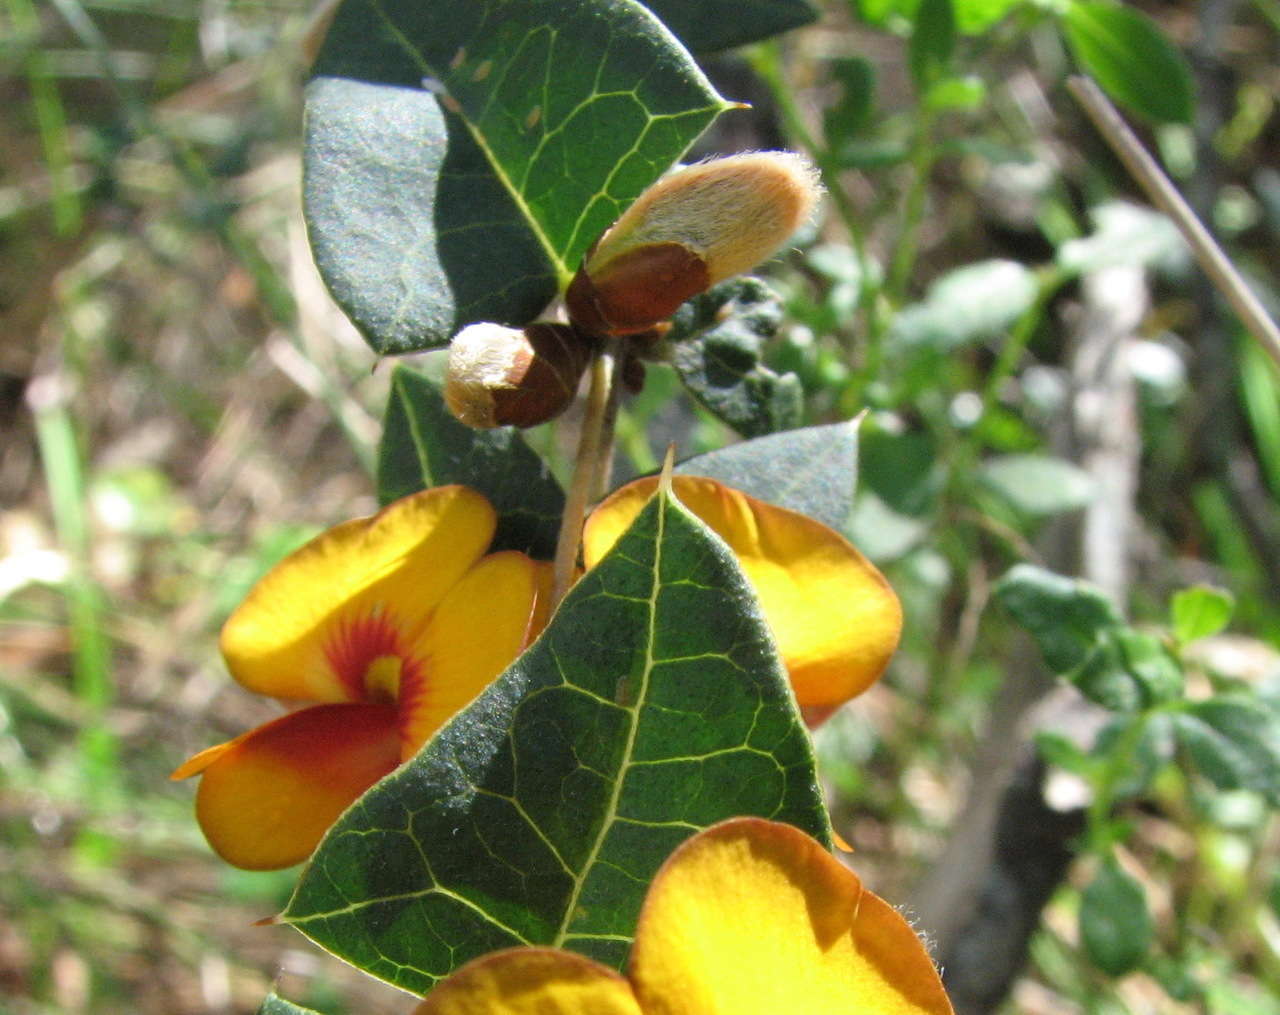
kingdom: Plantae
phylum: Tracheophyta
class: Magnoliopsida
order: Fabales
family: Fabaceae
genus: Platylobium
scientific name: Platylobium obtusangulum
